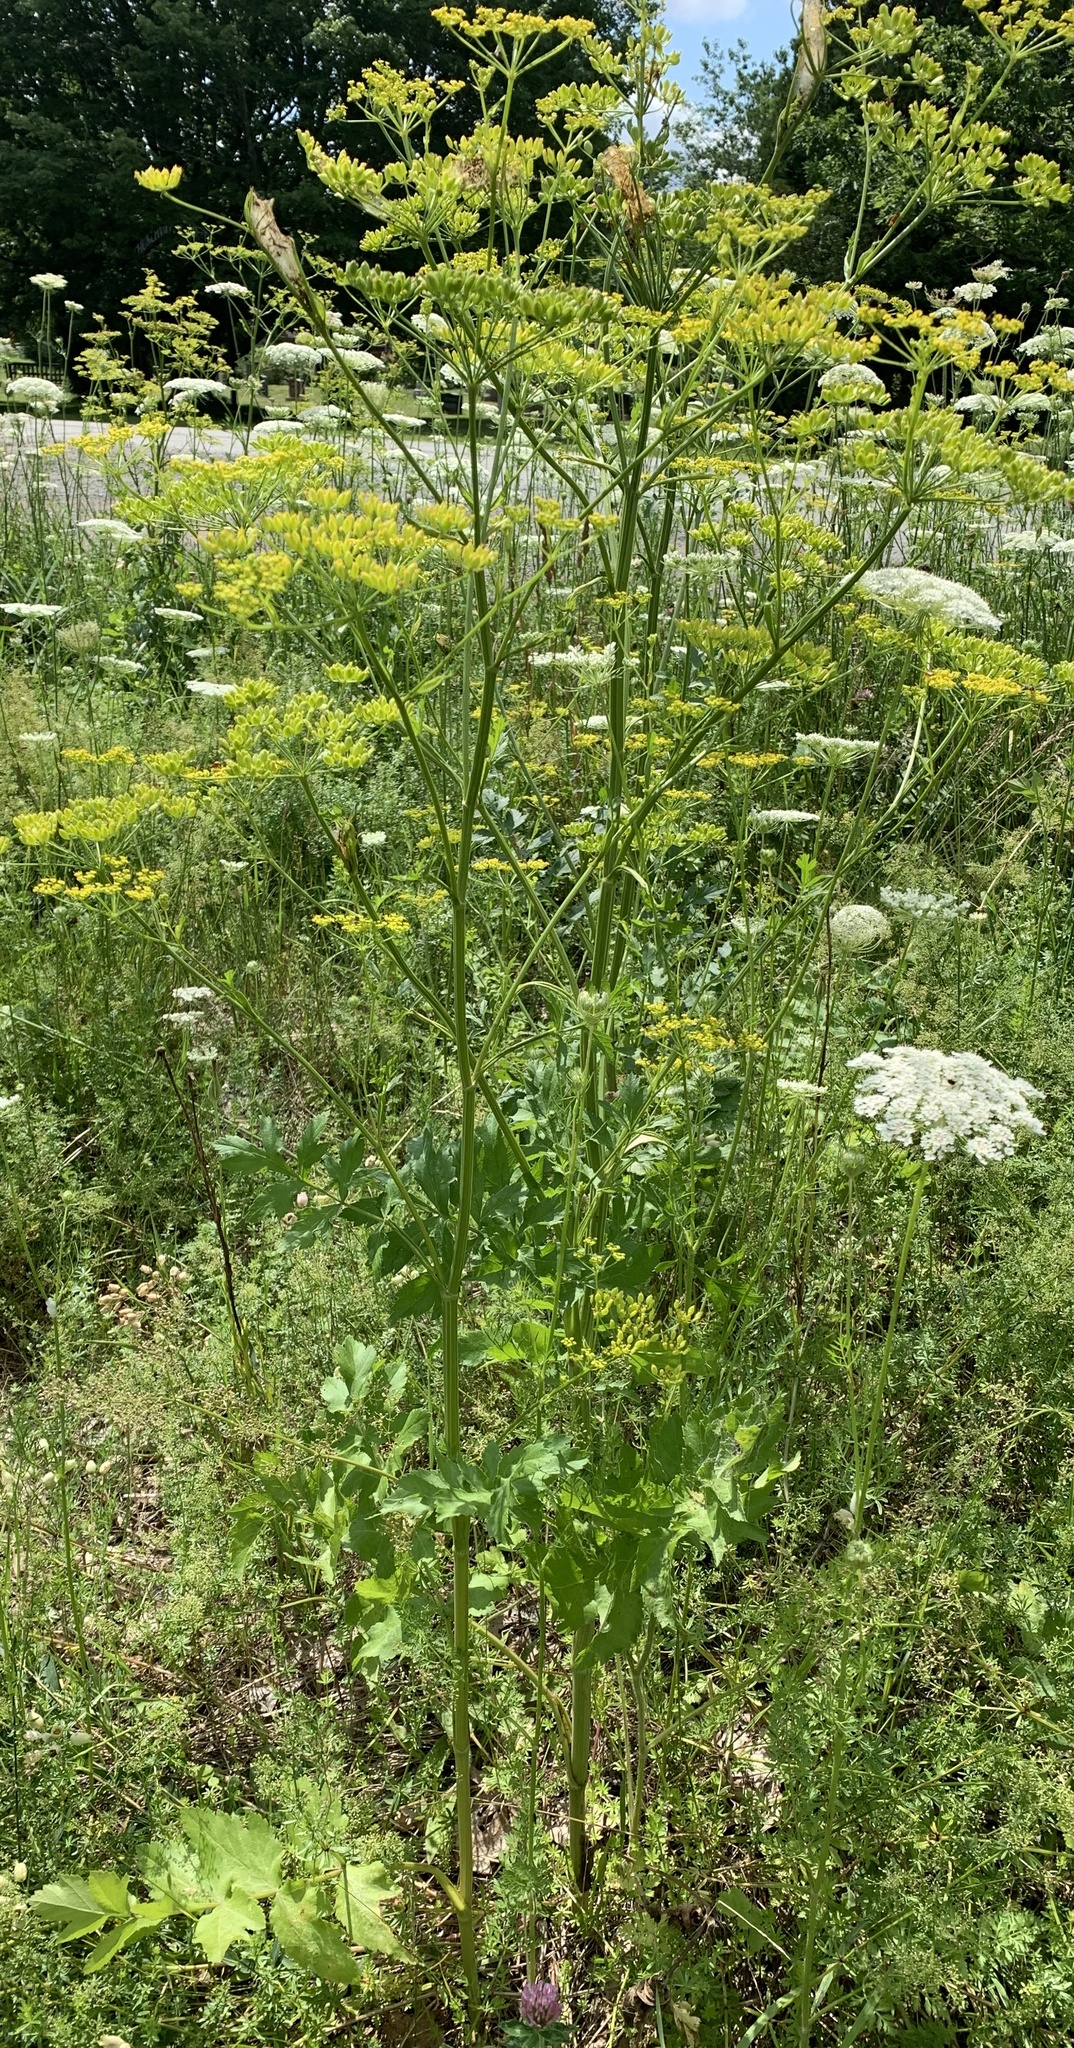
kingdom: Plantae
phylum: Tracheophyta
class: Magnoliopsida
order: Apiales
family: Apiaceae
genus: Pastinaca
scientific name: Pastinaca sativa
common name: Wild parsnip
